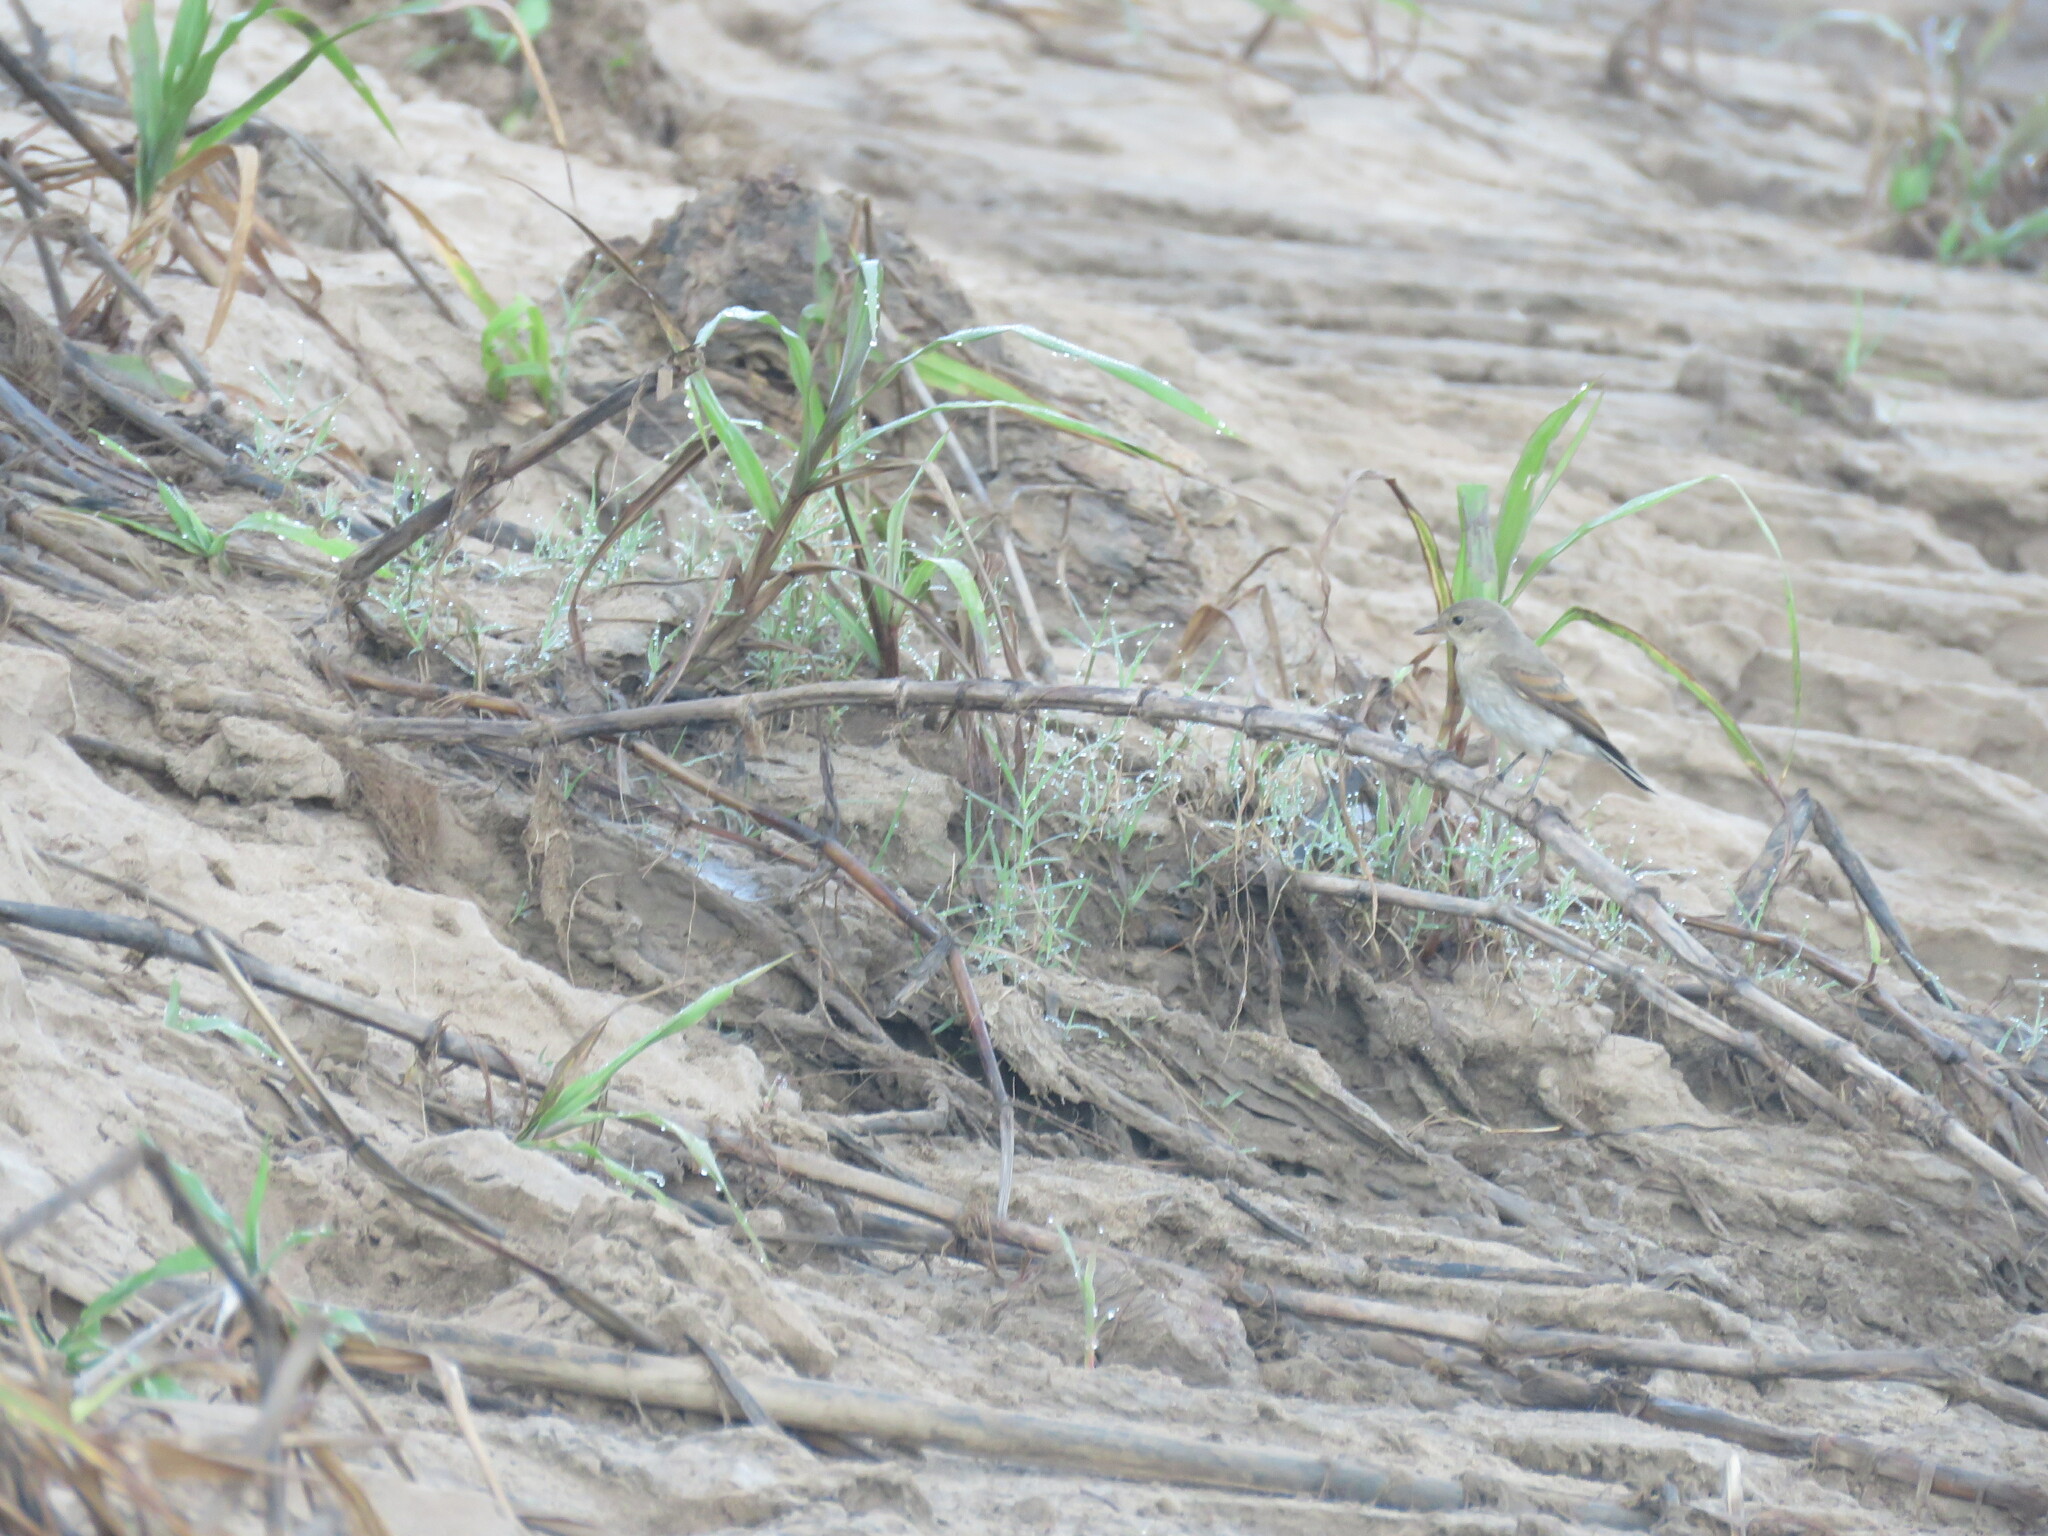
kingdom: Animalia
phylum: Chordata
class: Aves
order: Passeriformes
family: Tyrannidae
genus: Muscisaxicola
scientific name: Muscisaxicola fluviatilis
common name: Little ground tyrant
